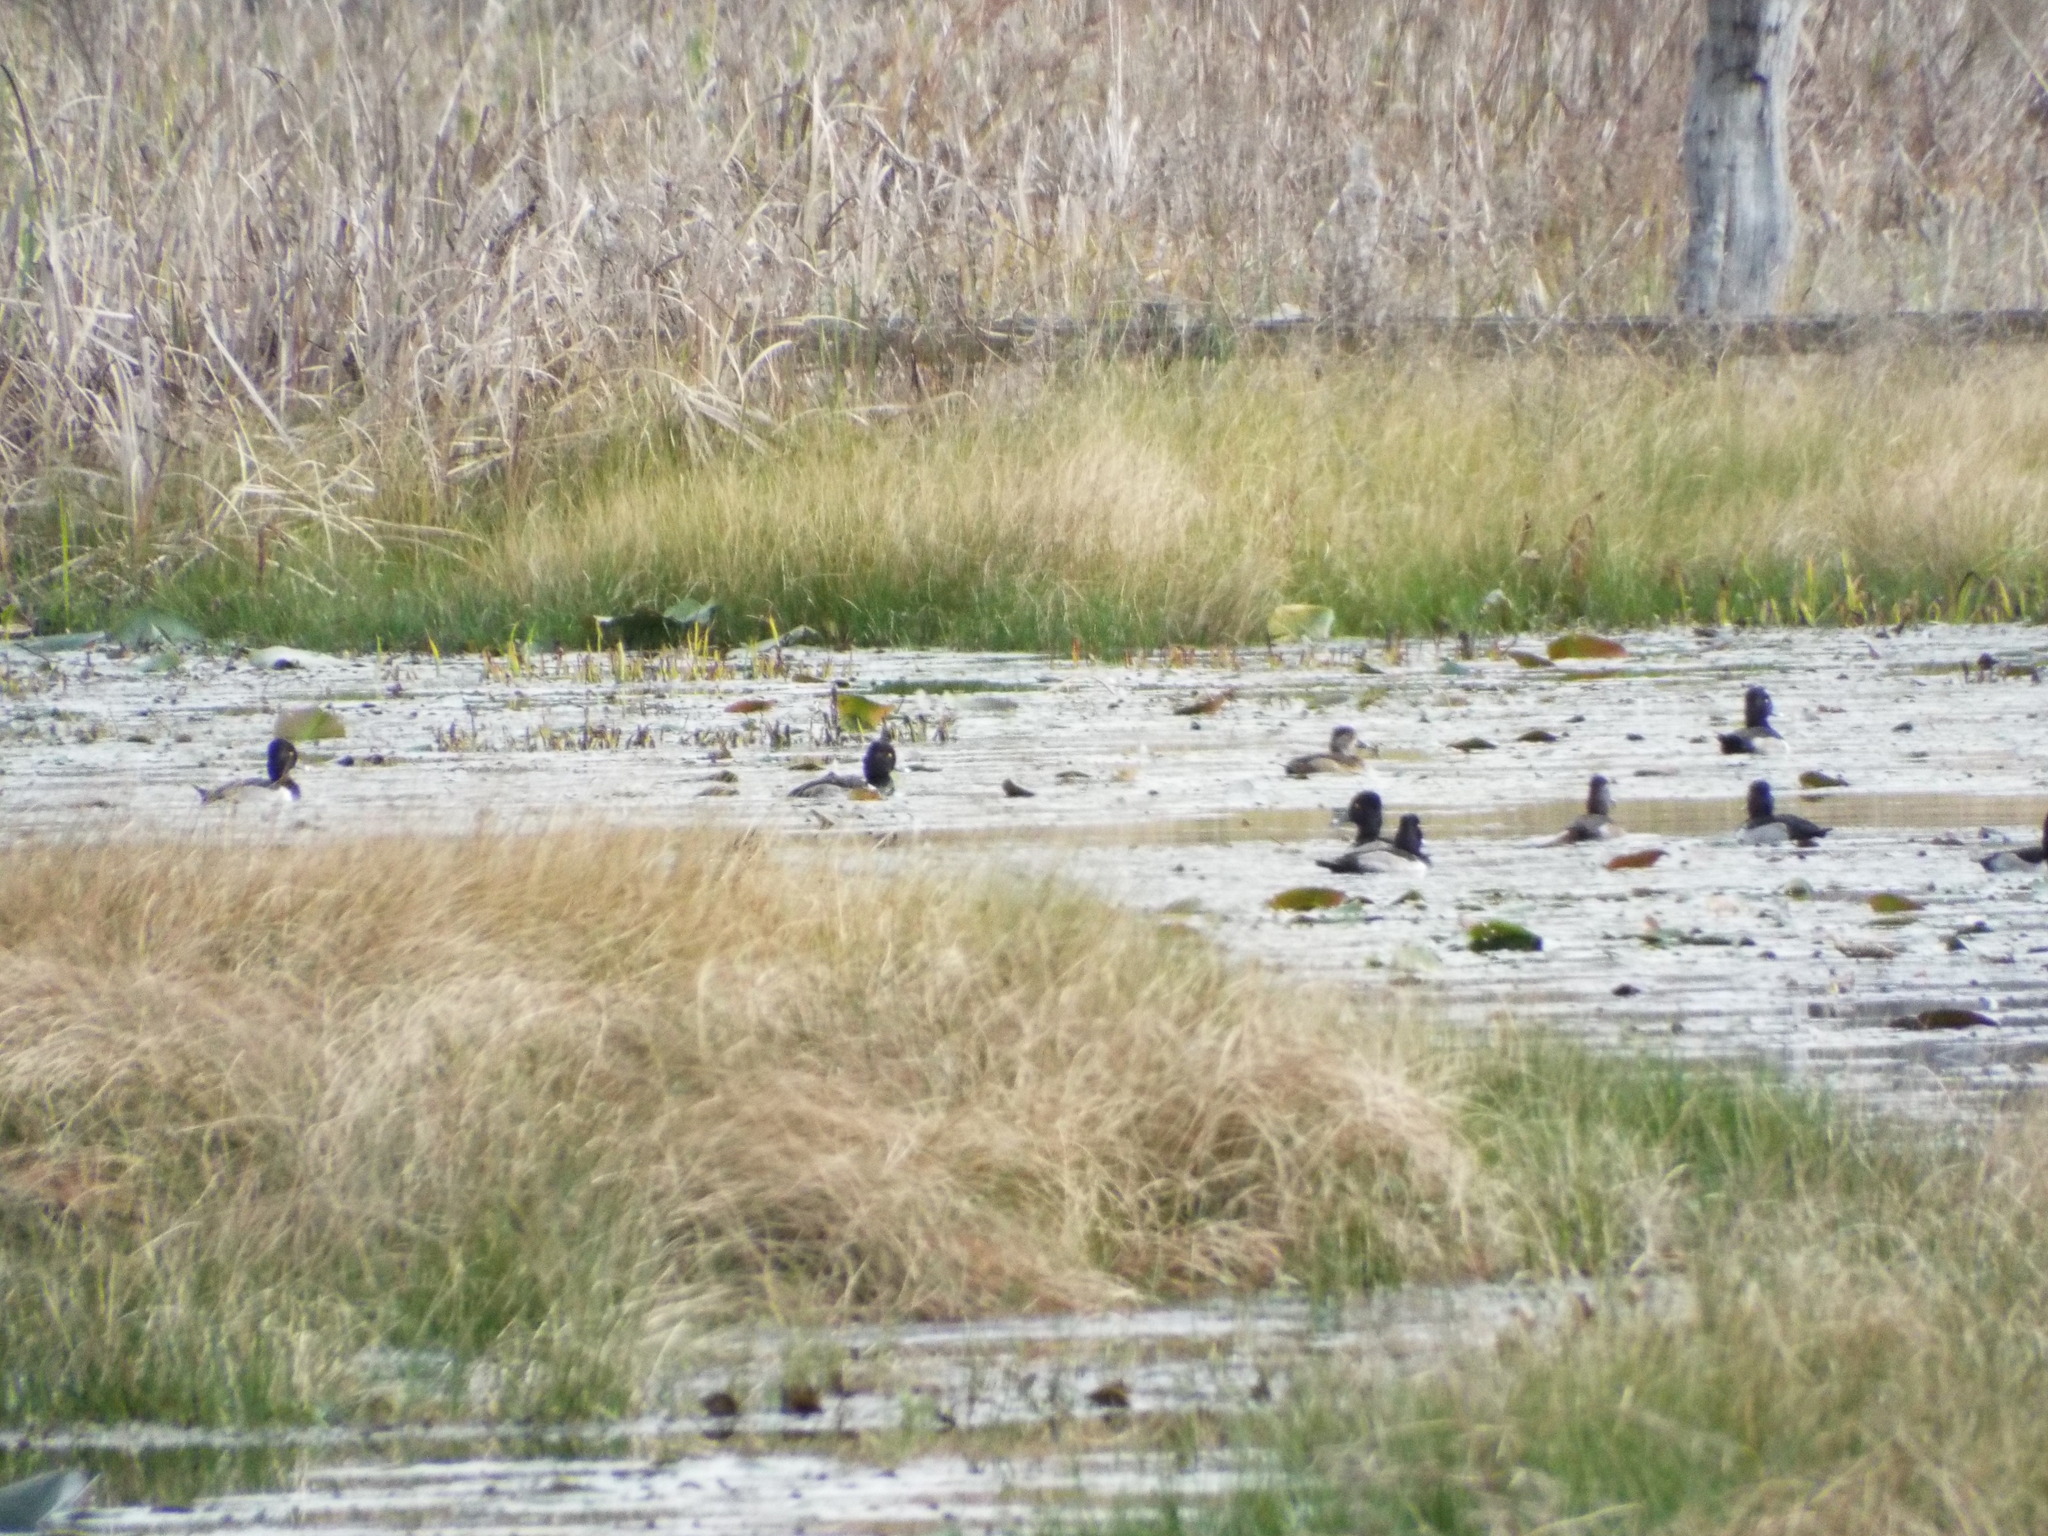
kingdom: Animalia
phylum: Chordata
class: Aves
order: Anseriformes
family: Anatidae
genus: Aythya
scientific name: Aythya collaris
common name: Ring-necked duck
